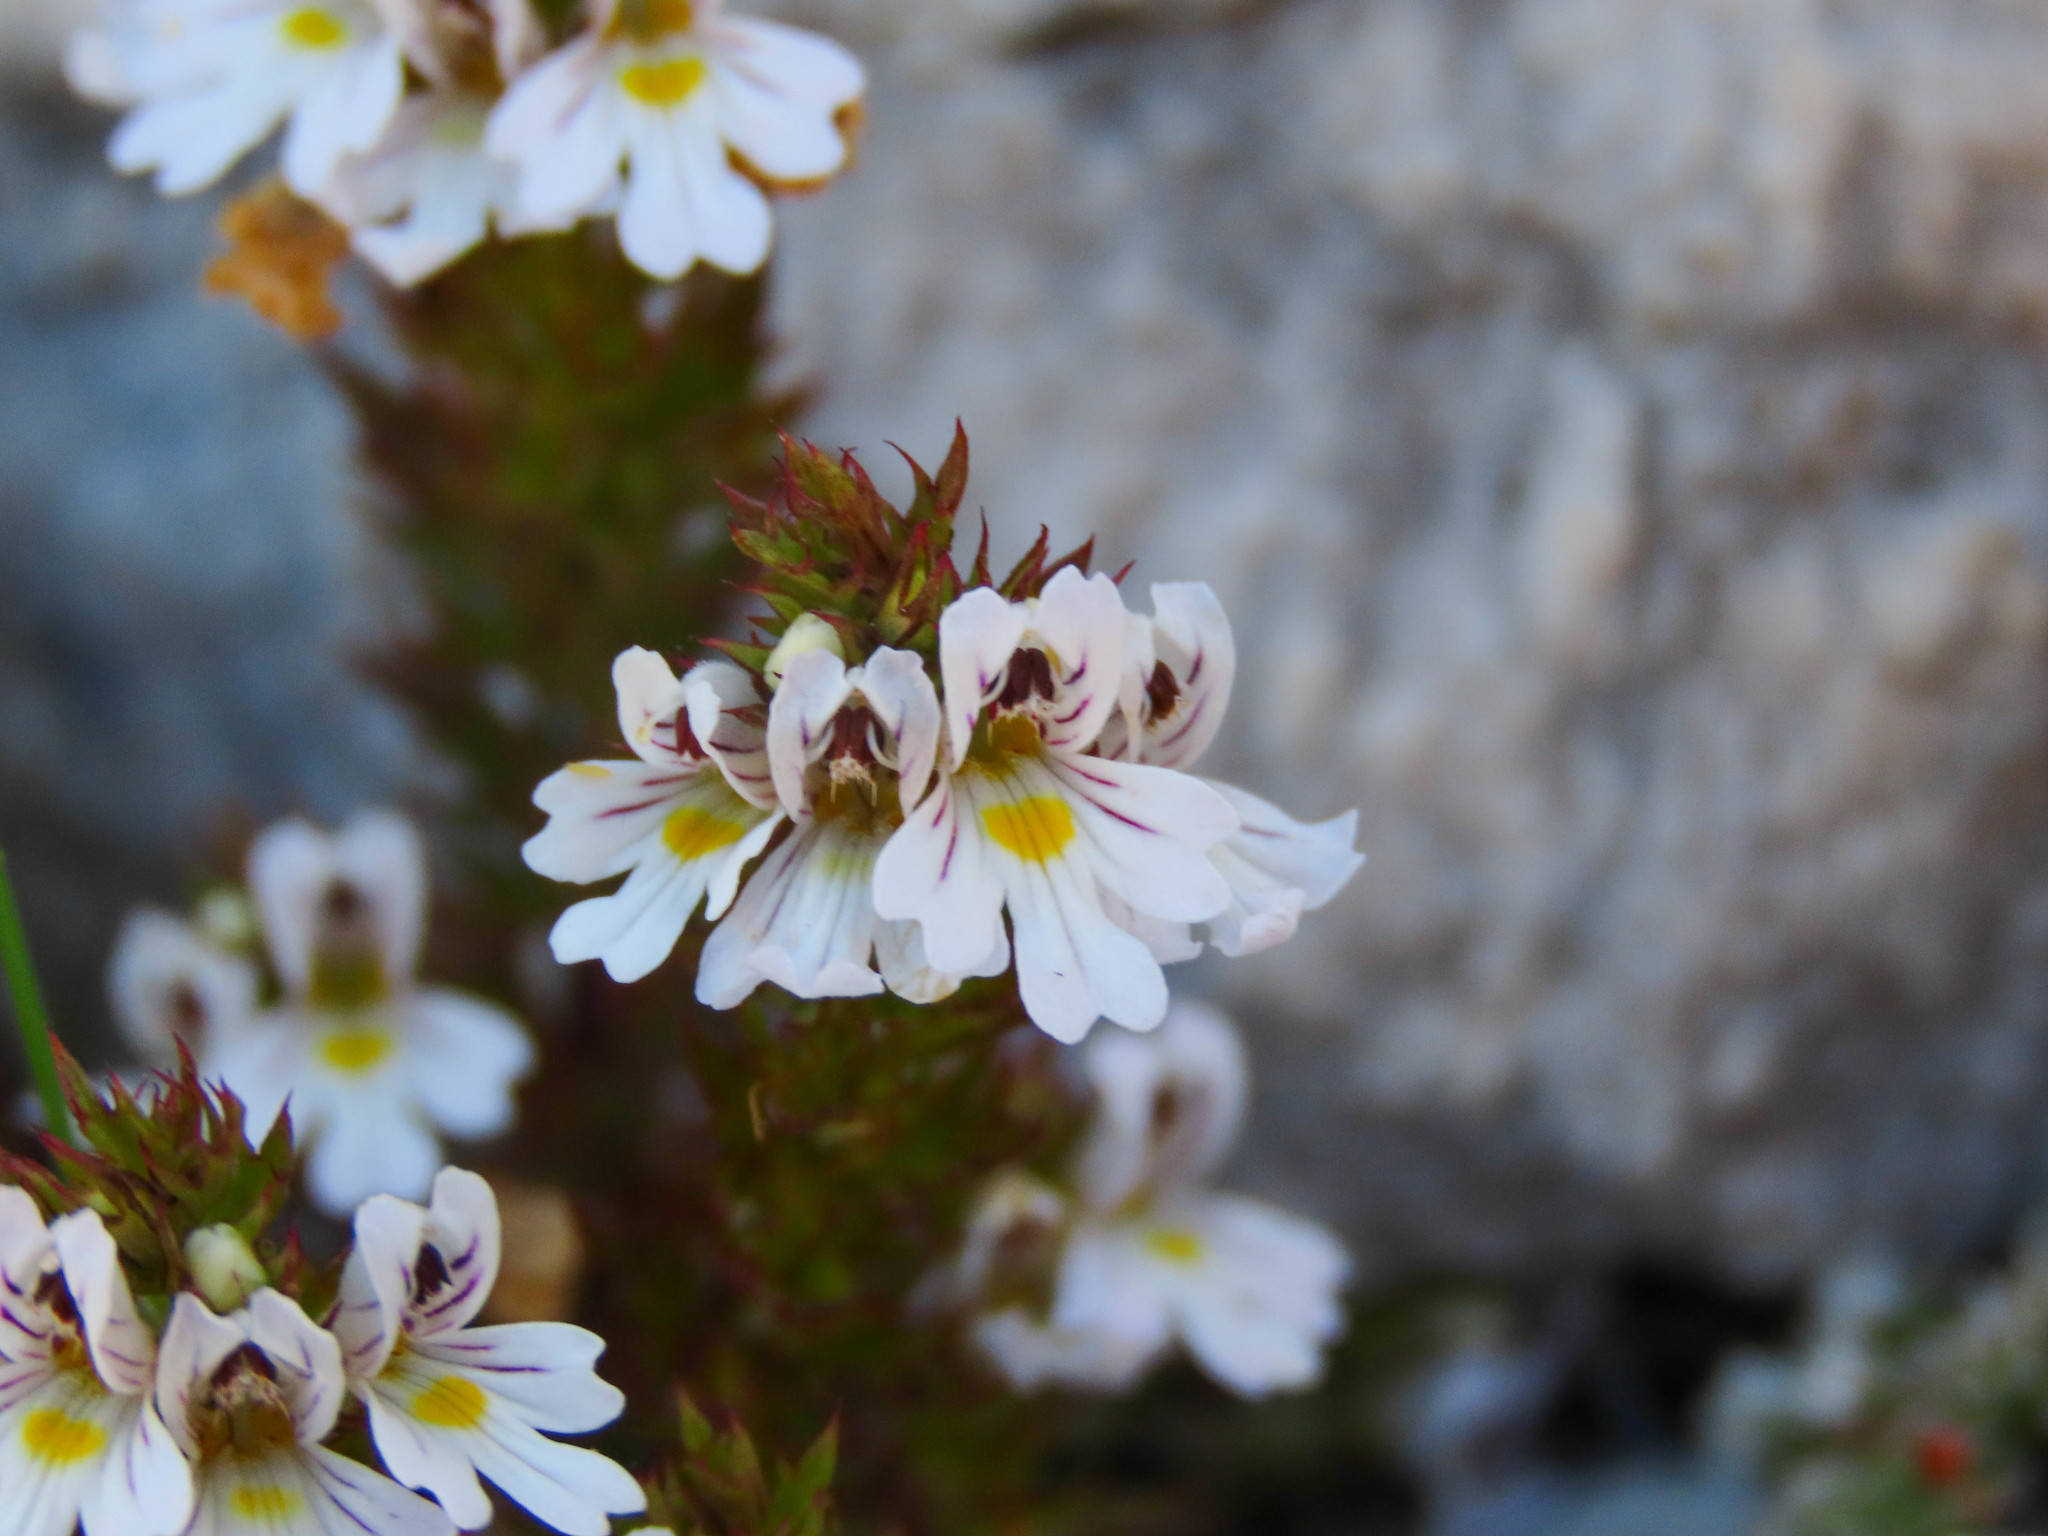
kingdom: Plantae
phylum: Tracheophyta
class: Magnoliopsida
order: Lamiales
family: Orobanchaceae
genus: Euphrasia
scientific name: Euphrasia salisburgensis
